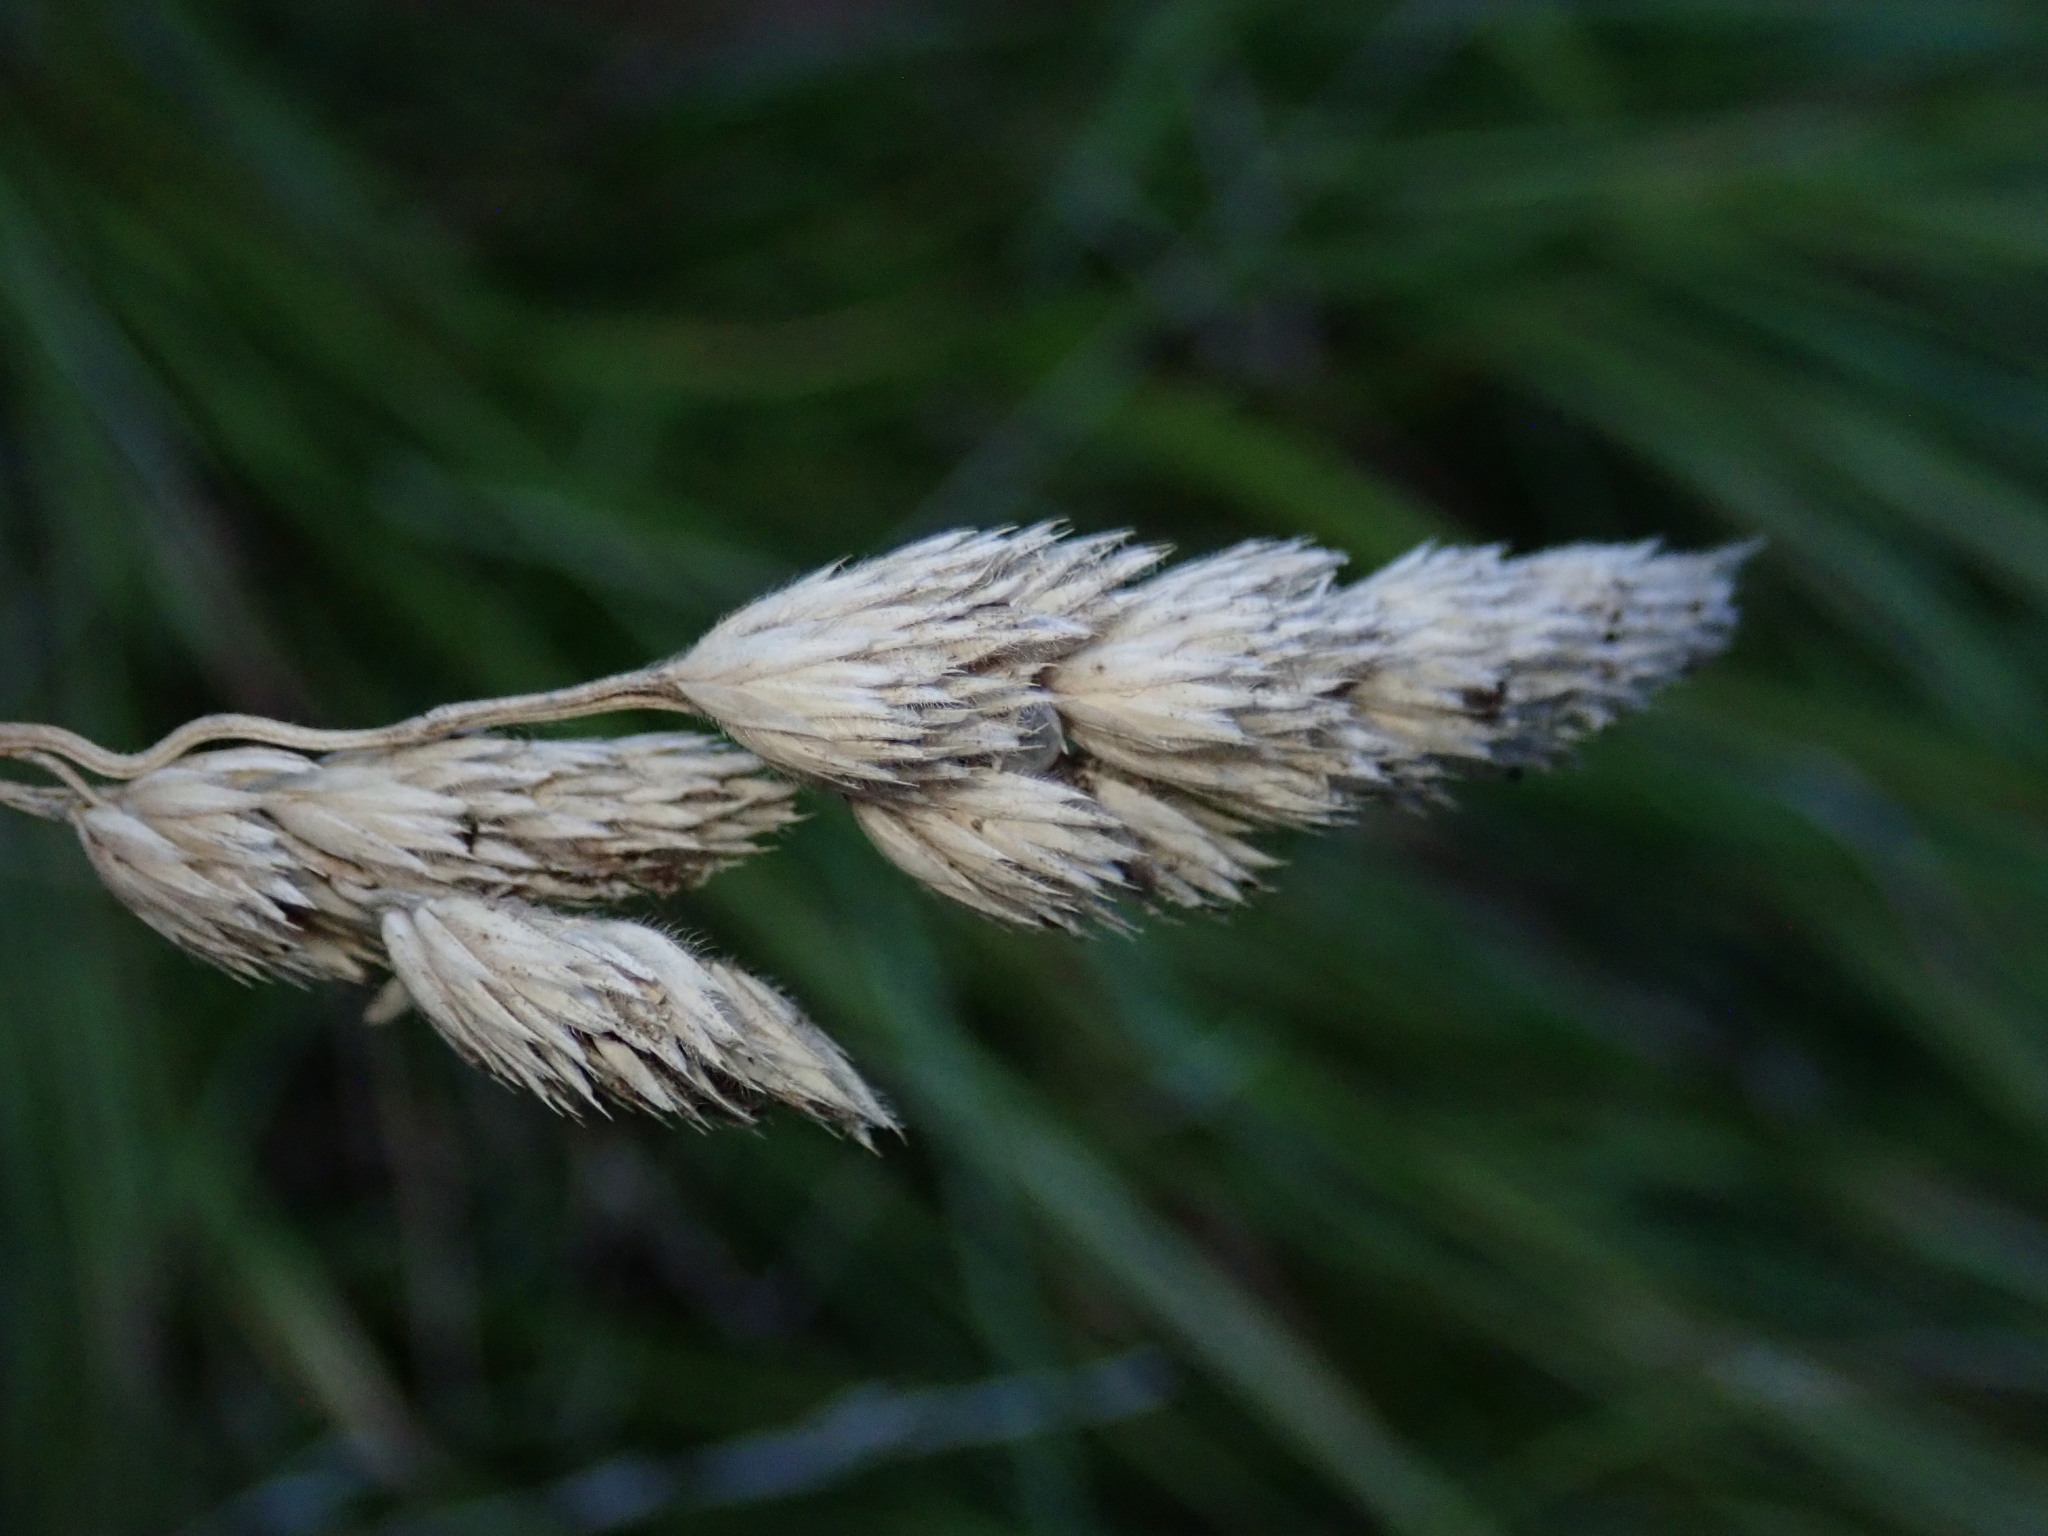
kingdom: Plantae
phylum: Tracheophyta
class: Liliopsida
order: Poales
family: Poaceae
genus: Dactylis
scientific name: Dactylis glomerata
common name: Orchardgrass
